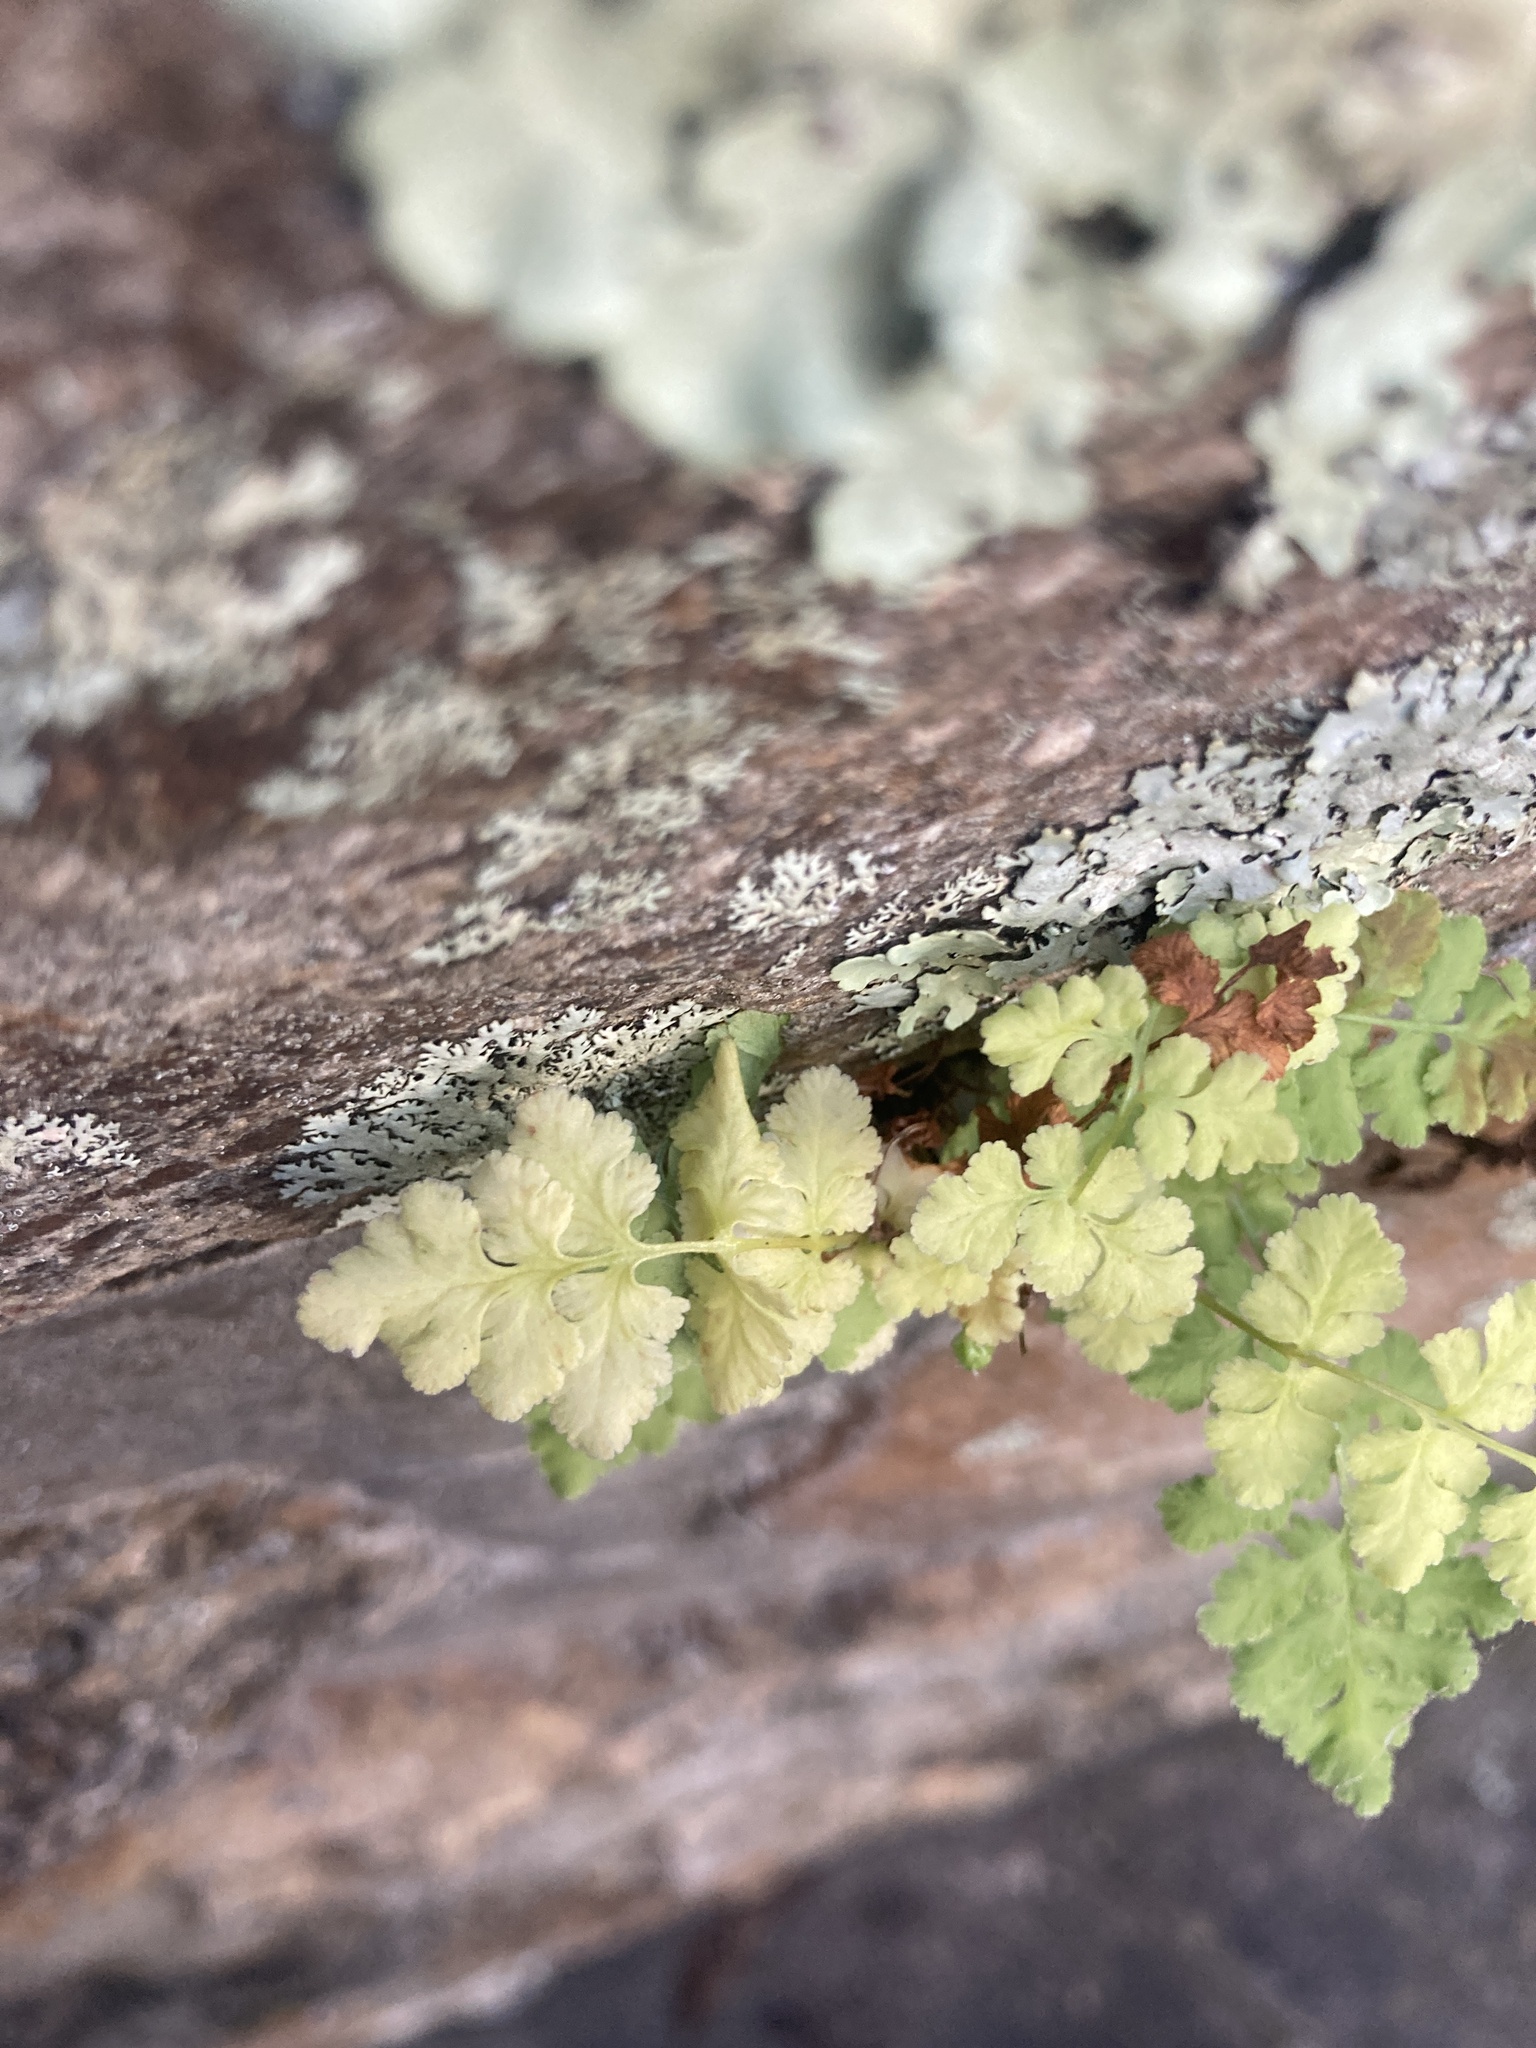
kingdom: Plantae
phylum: Tracheophyta
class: Polypodiopsida
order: Polypodiales
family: Woodsiaceae
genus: Physematium
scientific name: Physematium obtusum
